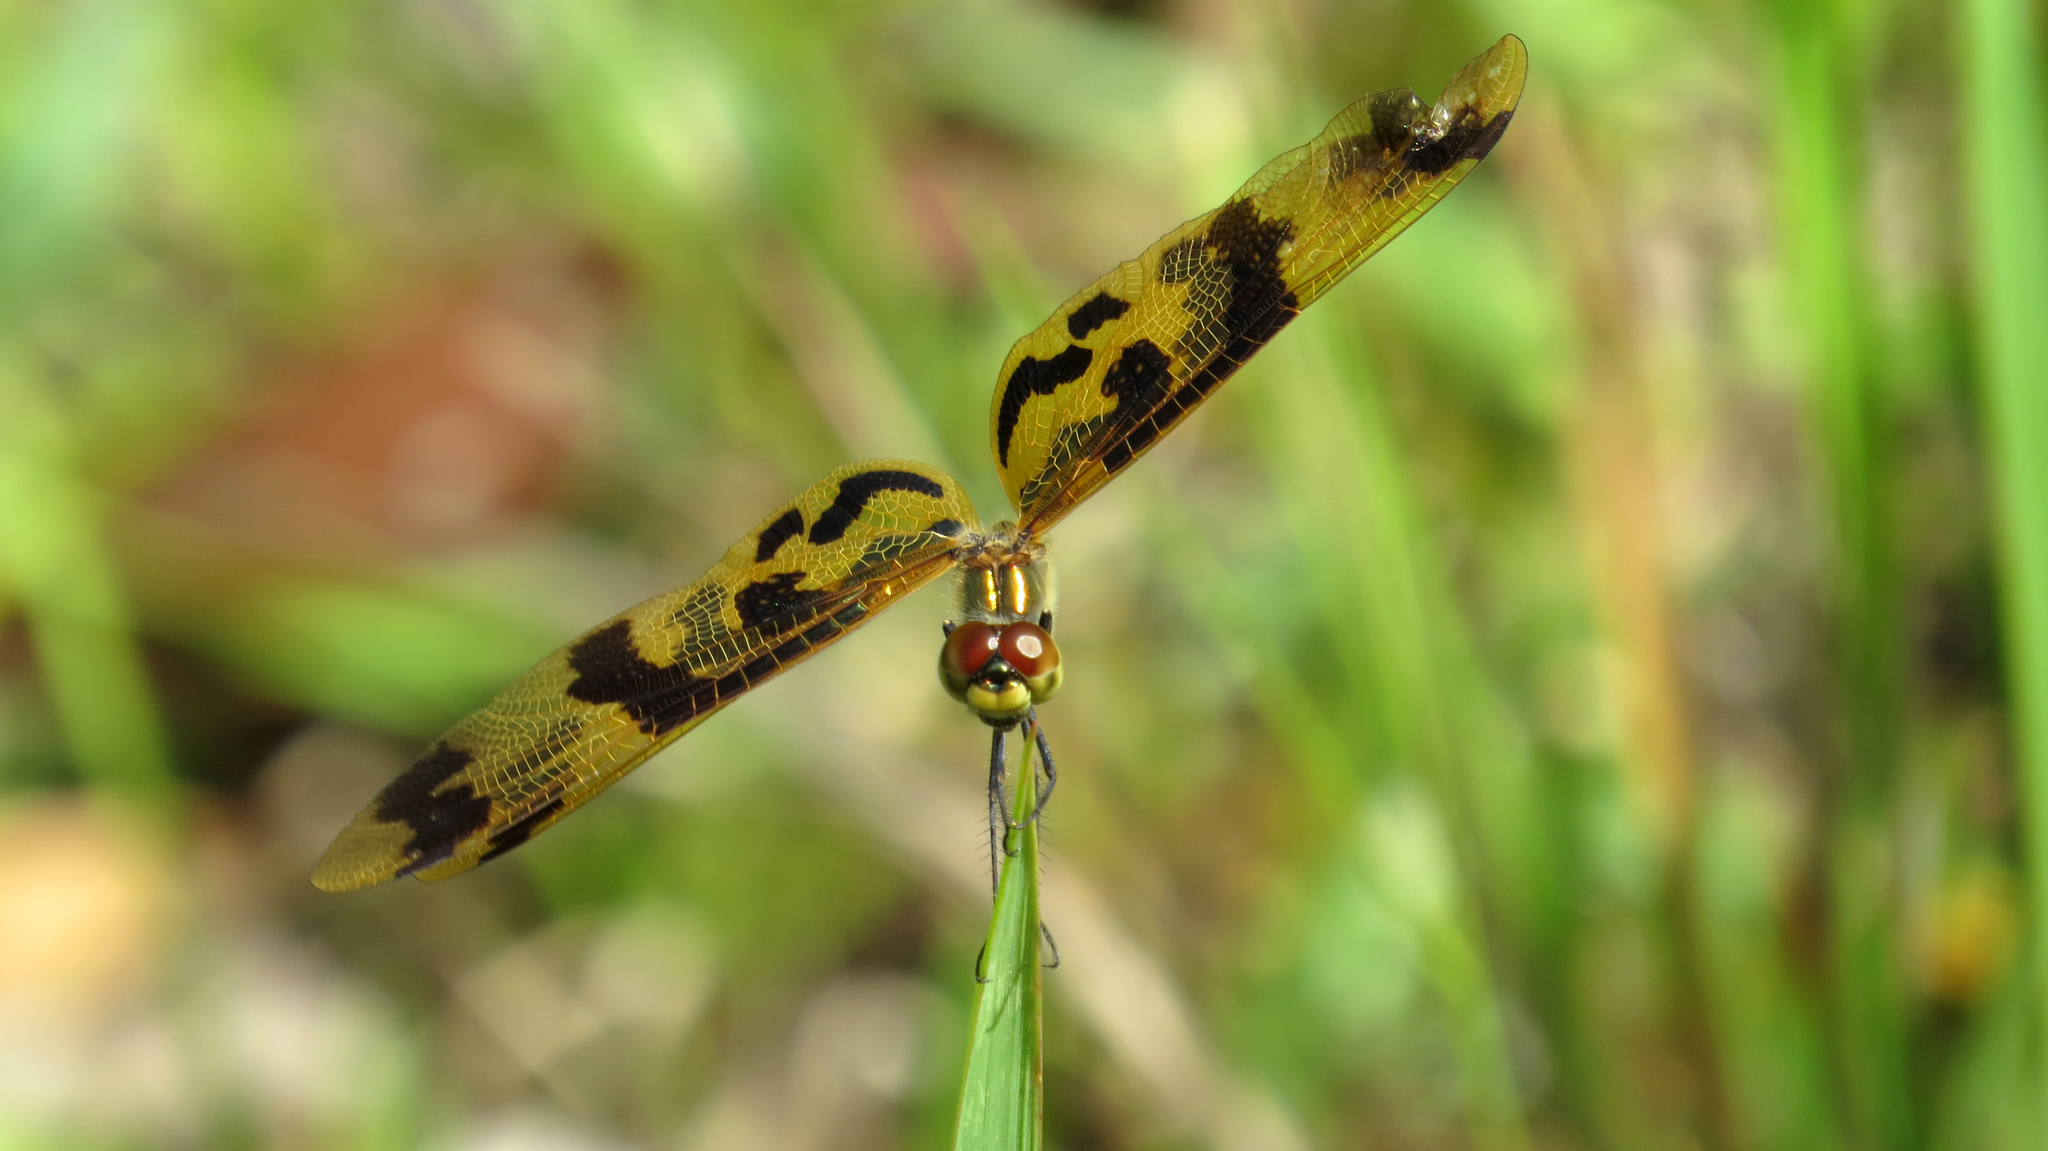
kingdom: Animalia
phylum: Arthropoda
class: Insecta
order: Odonata
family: Libellulidae
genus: Rhyothemis
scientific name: Rhyothemis graphiptera
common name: Graphic flutterer
